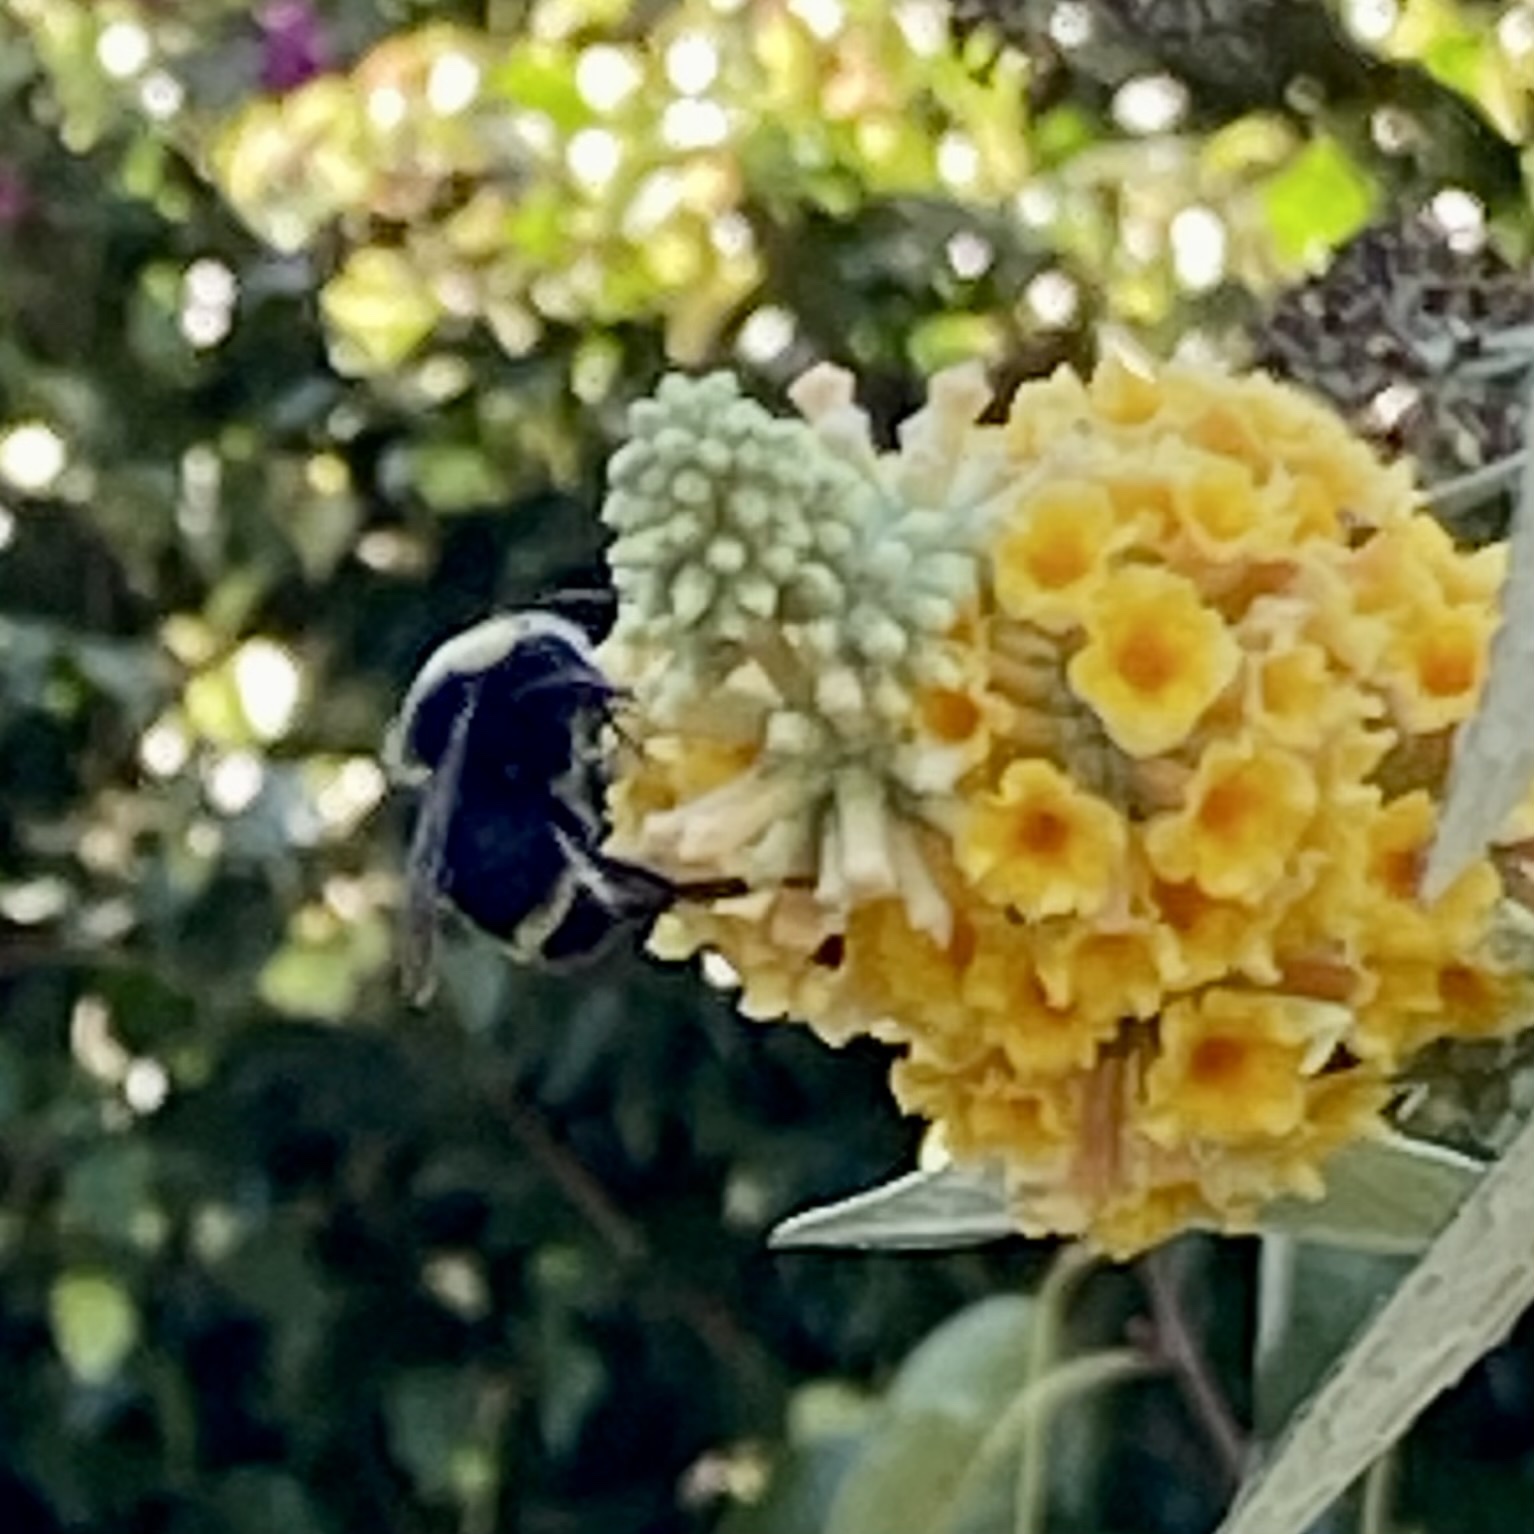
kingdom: Animalia
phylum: Arthropoda
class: Insecta
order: Hymenoptera
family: Apidae
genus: Bombus
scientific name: Bombus vosnesenskii
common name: Vosnesensky bumble bee
